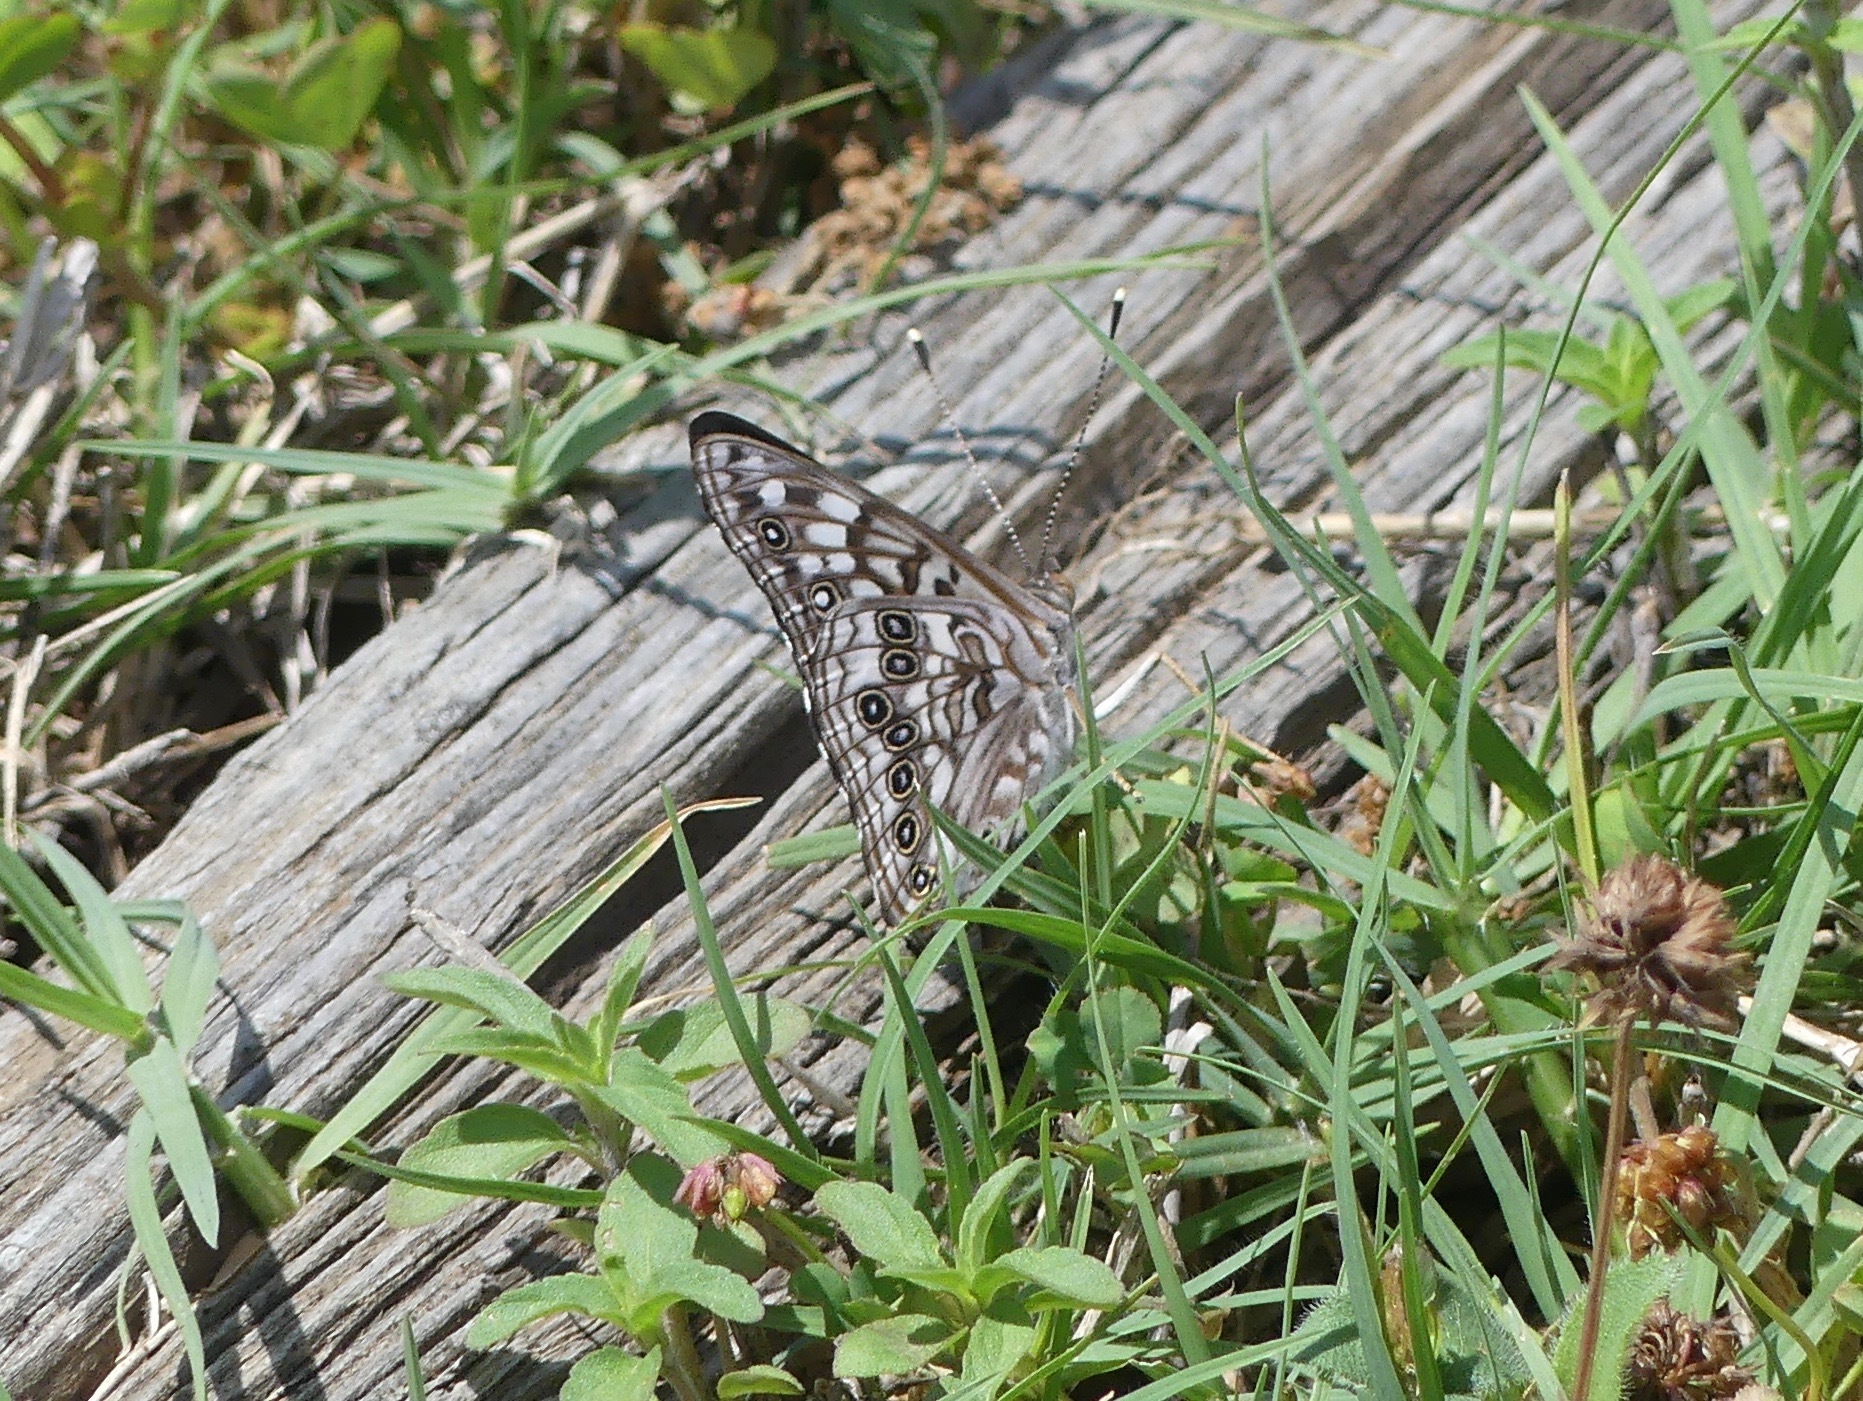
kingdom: Animalia
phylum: Arthropoda
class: Insecta
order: Lepidoptera
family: Nymphalidae
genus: Asterocampa
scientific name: Asterocampa celtis
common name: Hackberry emperor
